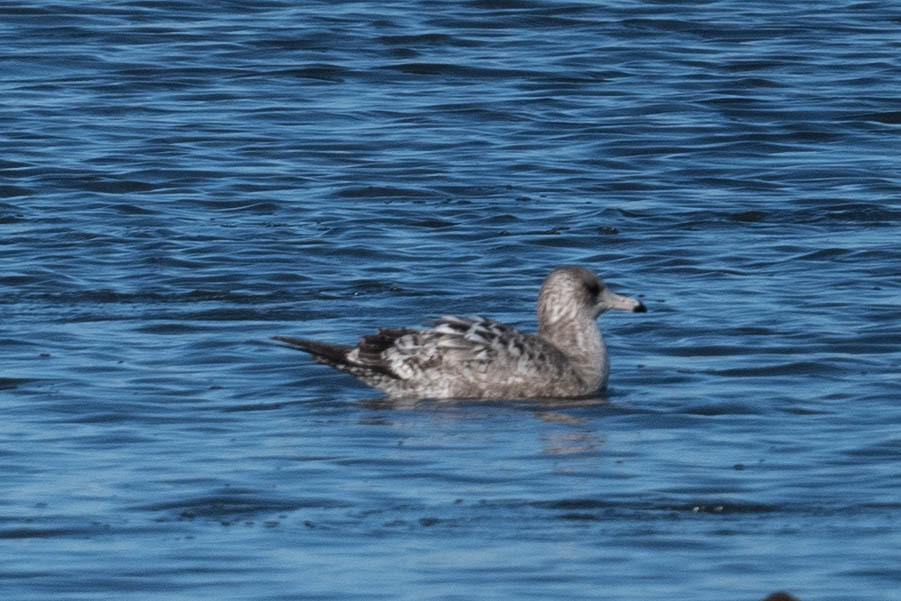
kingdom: Animalia
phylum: Chordata
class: Aves
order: Charadriiformes
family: Laridae
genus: Larus
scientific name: Larus californicus
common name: California gull
